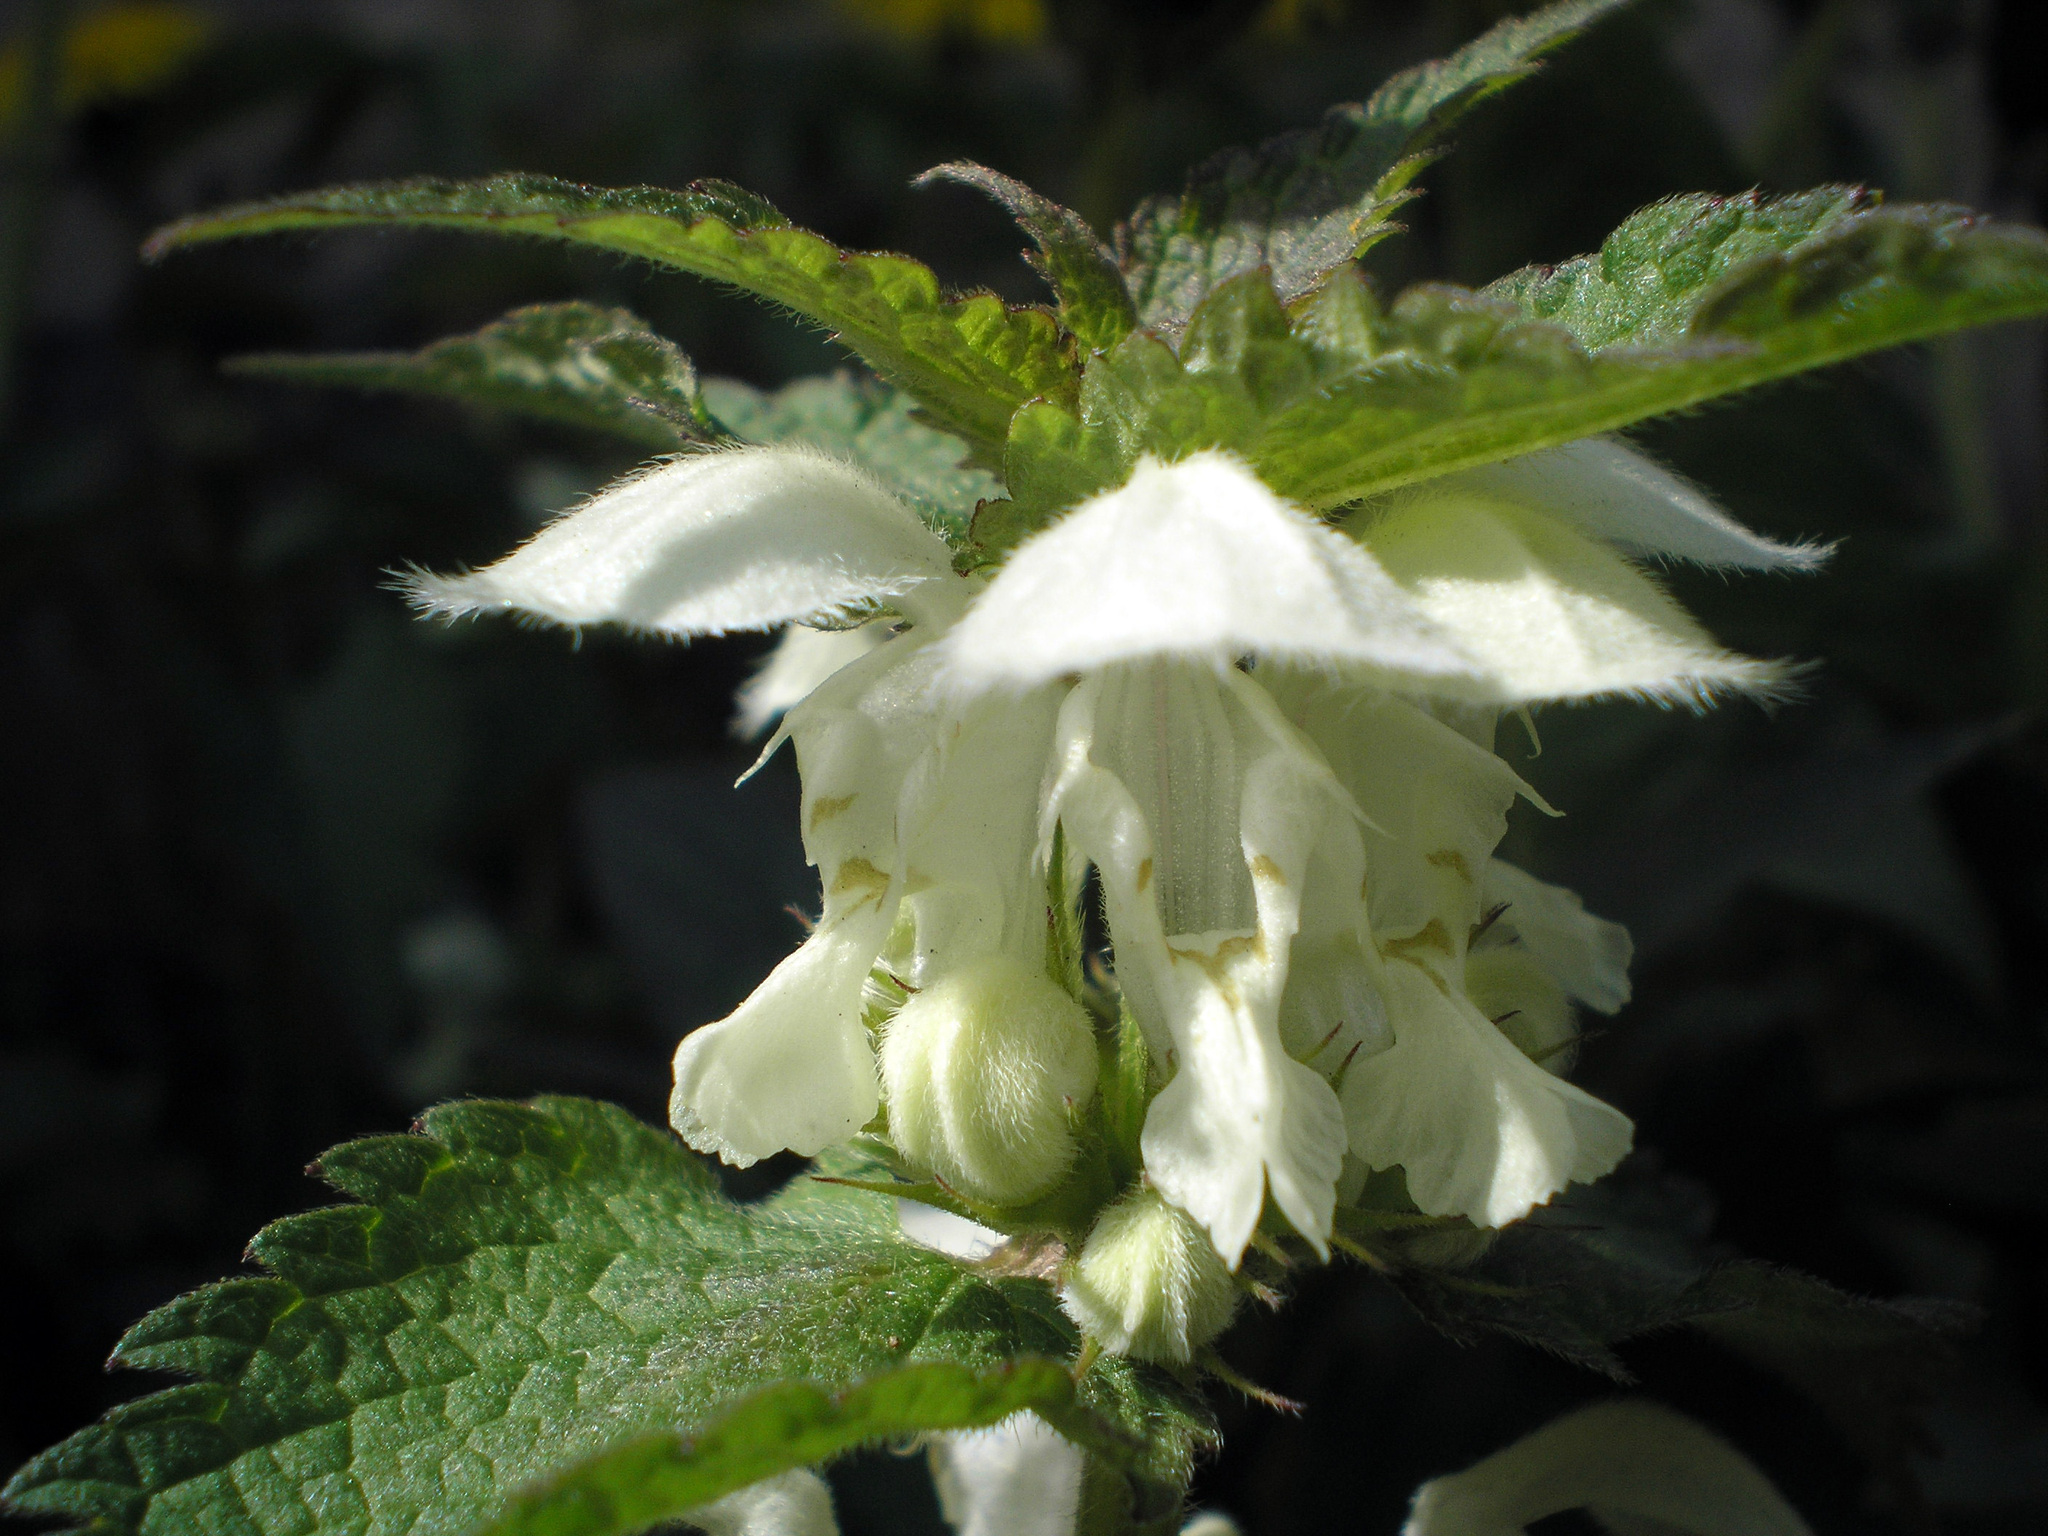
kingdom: Plantae
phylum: Tracheophyta
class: Magnoliopsida
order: Lamiales
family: Lamiaceae
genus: Lamium
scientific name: Lamium album
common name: White dead-nettle
